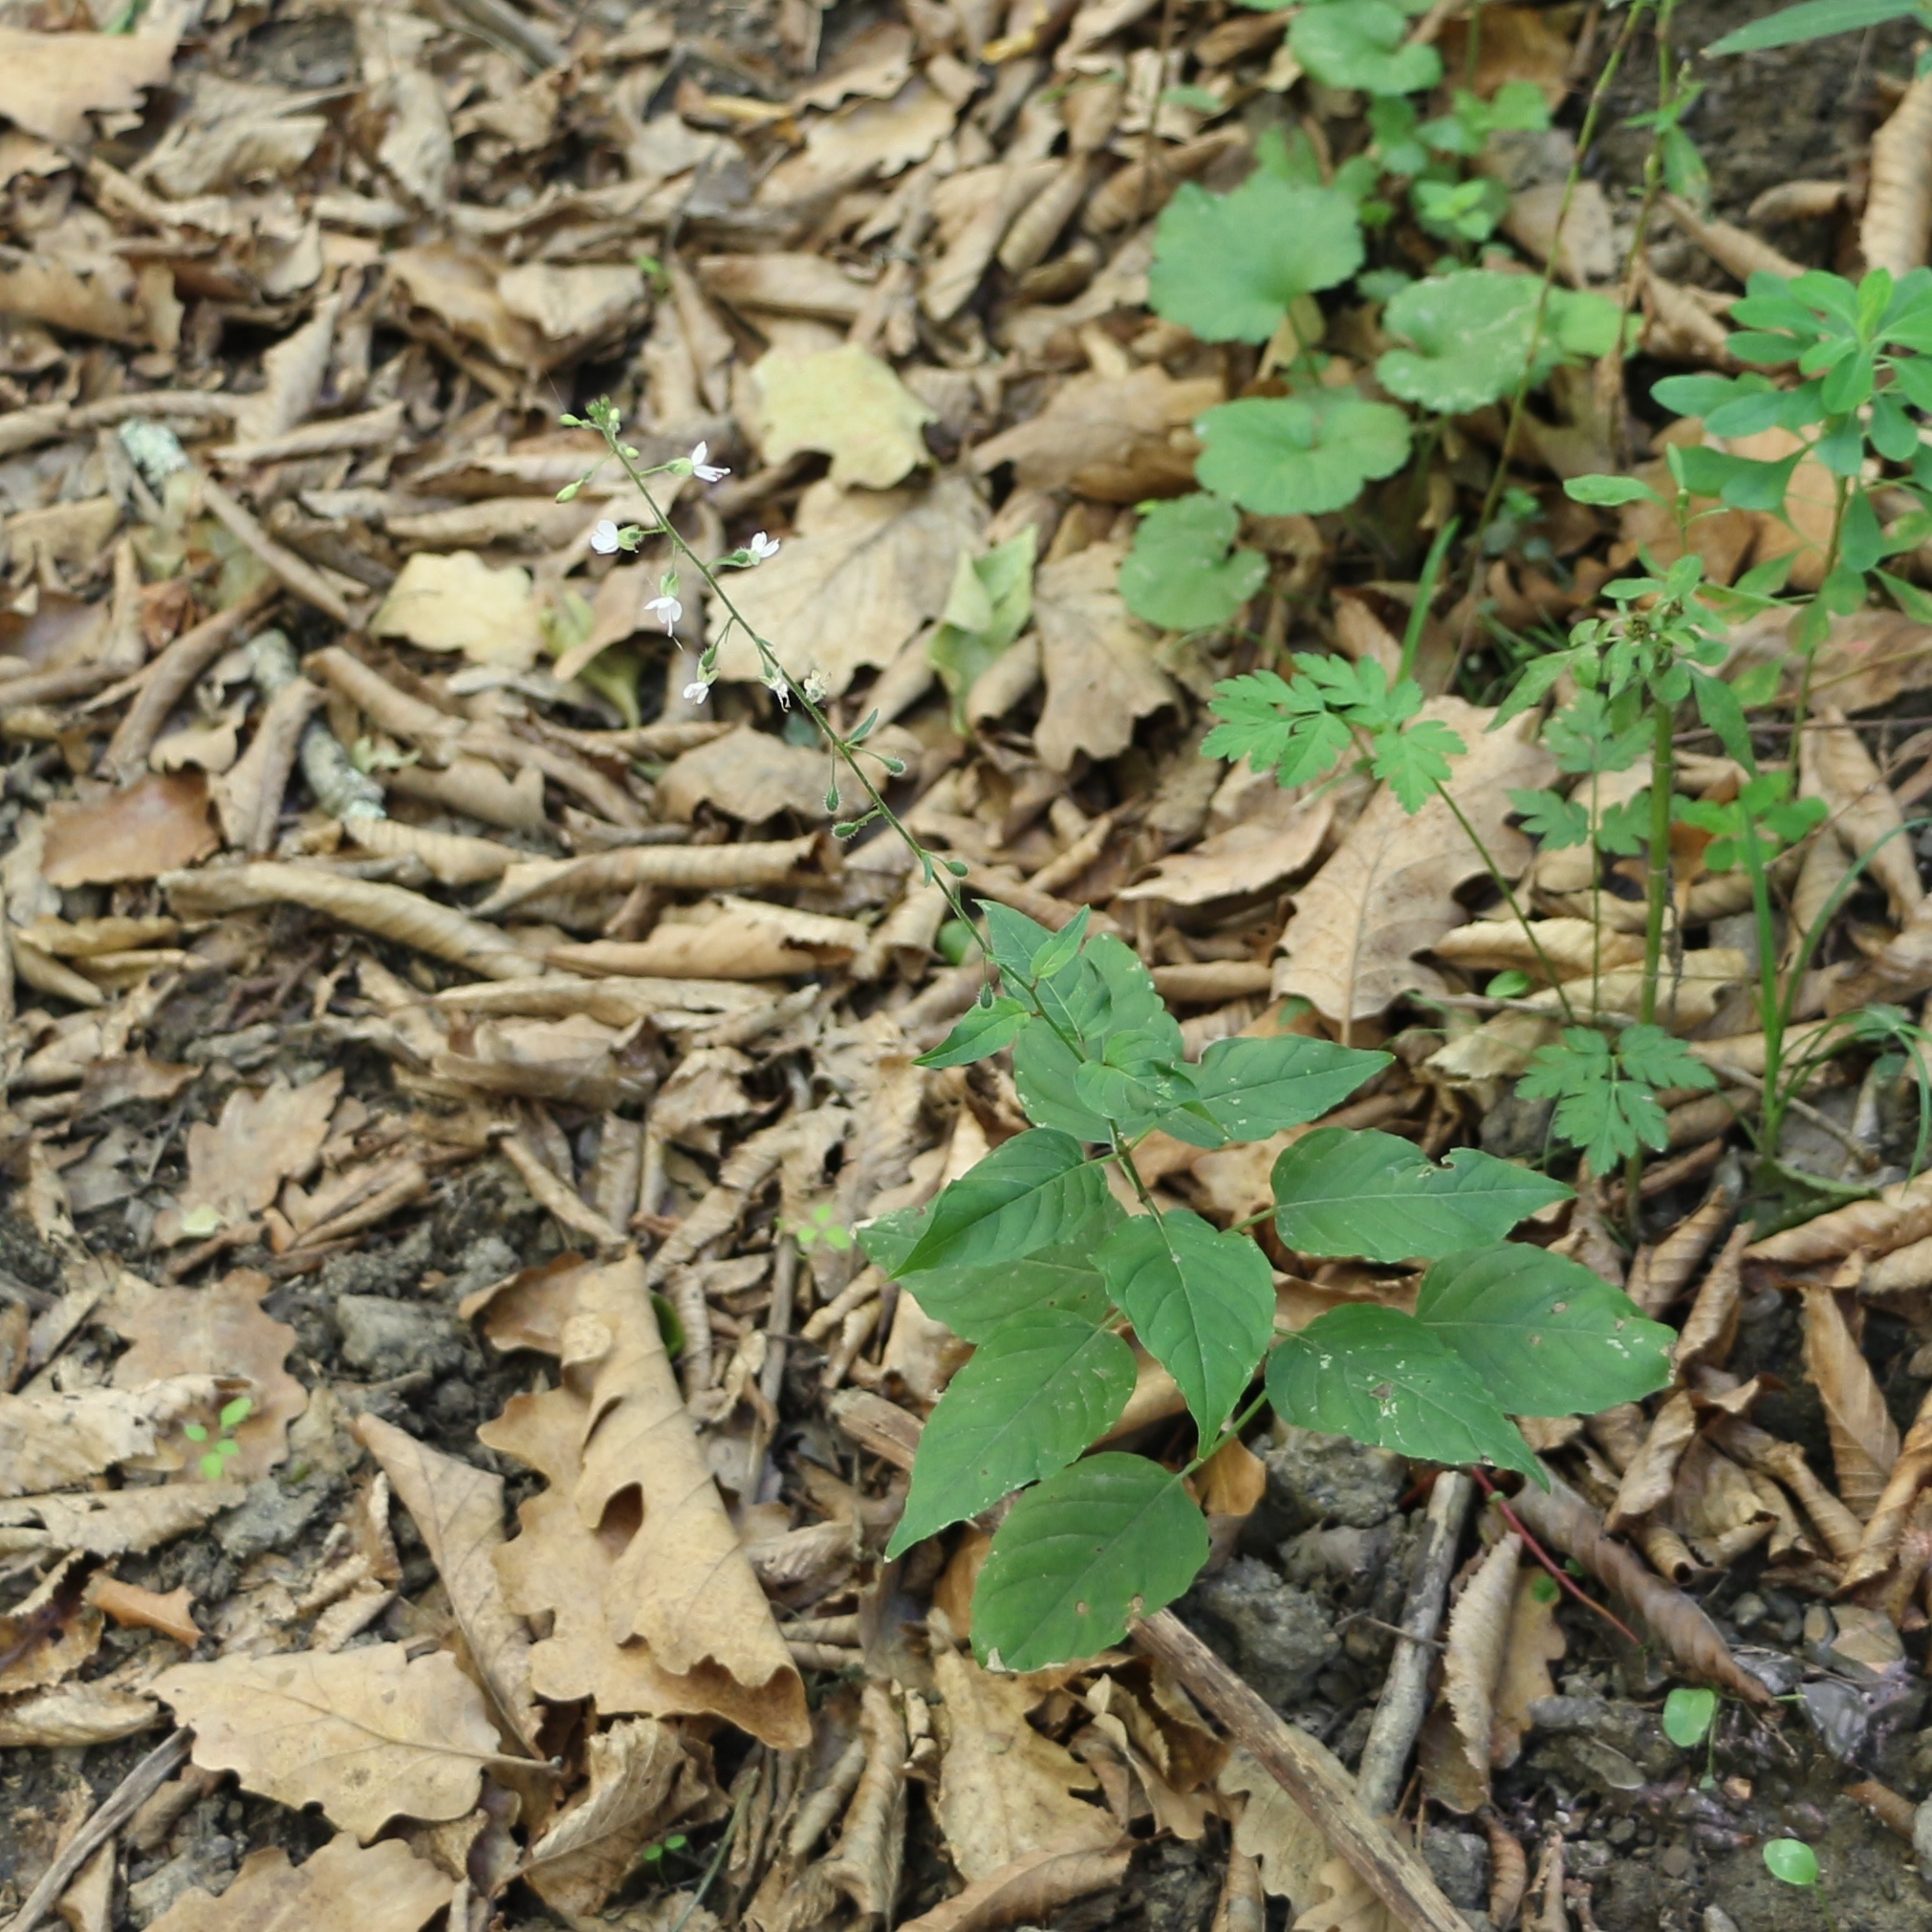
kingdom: Plantae
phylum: Tracheophyta
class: Magnoliopsida
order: Myrtales
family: Onagraceae
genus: Circaea
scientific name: Circaea lutetiana
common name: Enchanter's-nightshade
